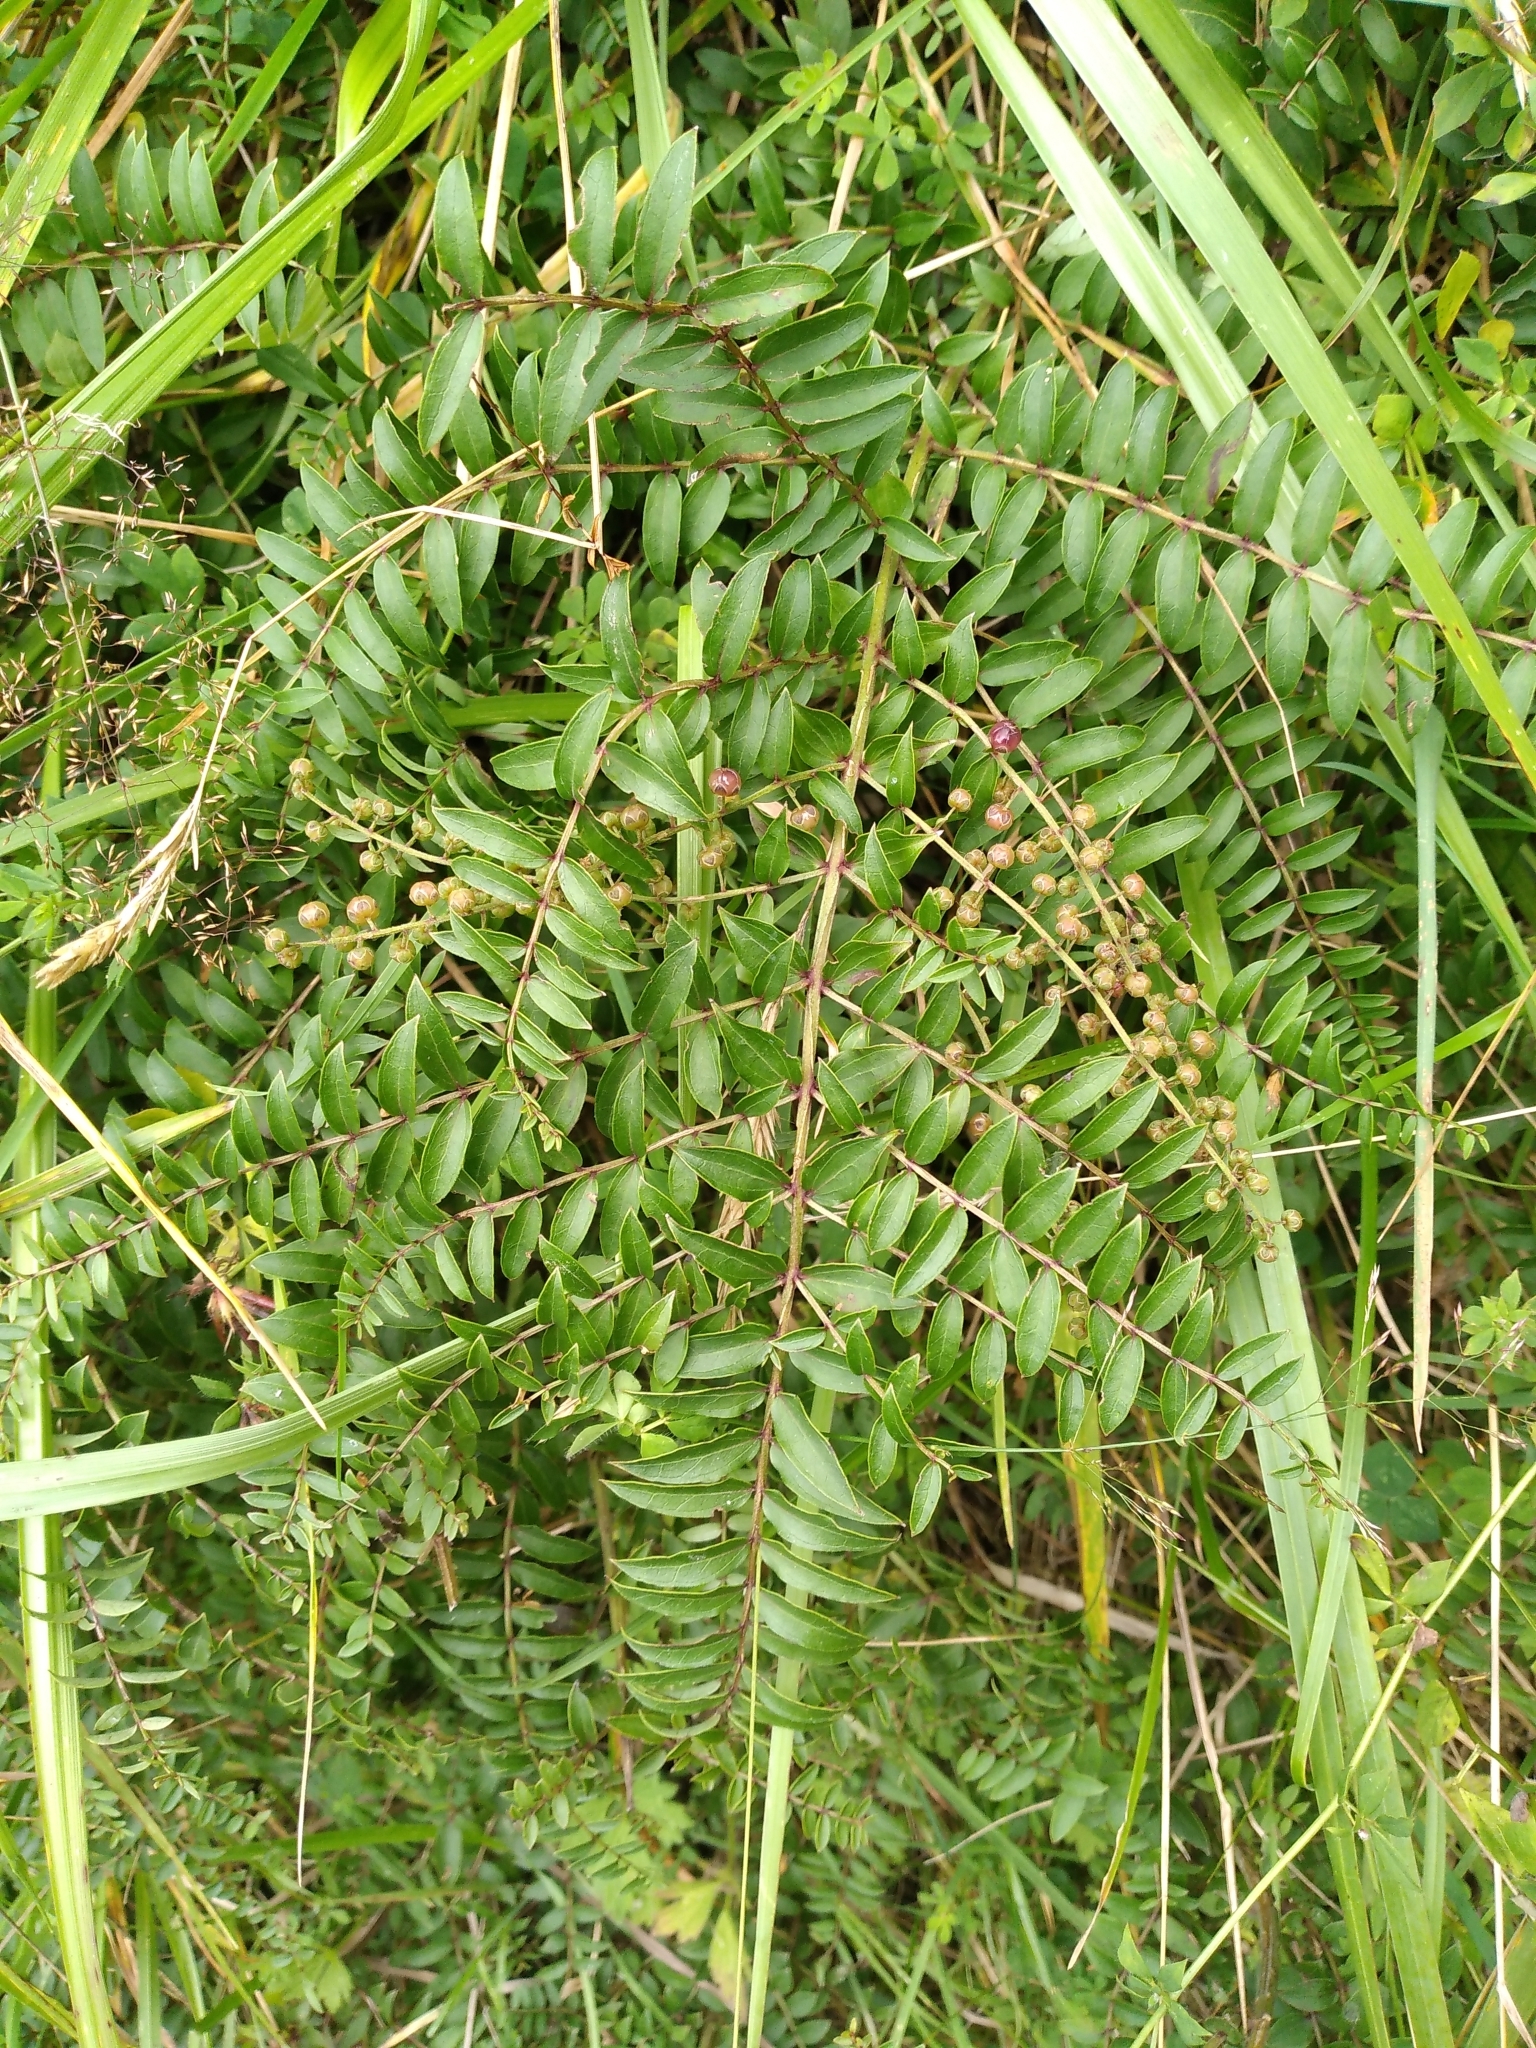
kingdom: Plantae
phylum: Tracheophyta
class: Magnoliopsida
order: Cucurbitales
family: Coriariaceae
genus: Coriaria
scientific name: Coriaria pteridoides
